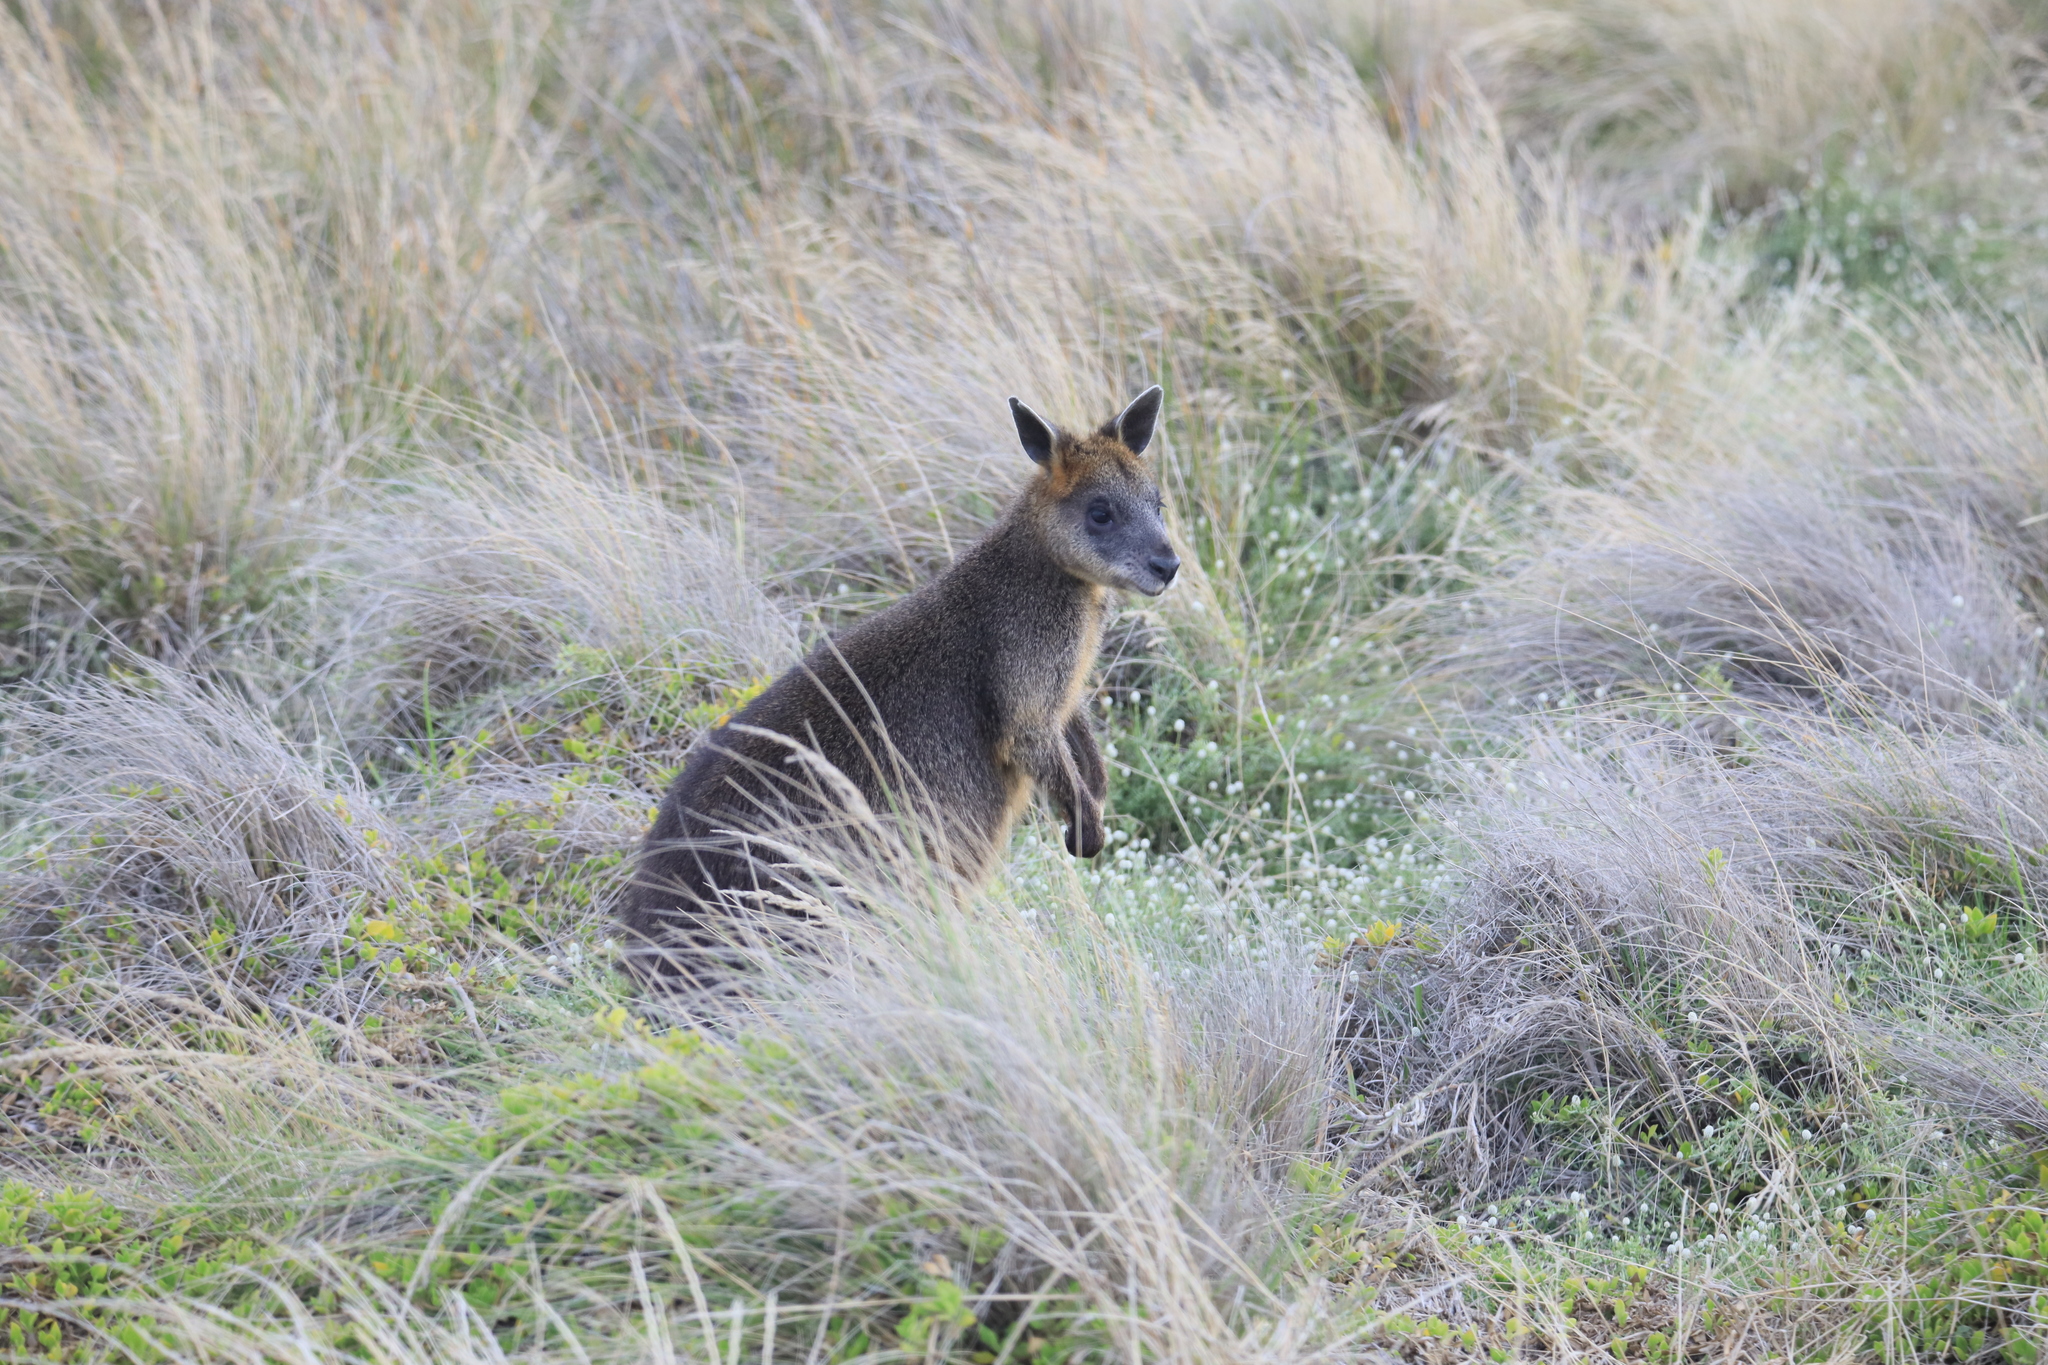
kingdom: Animalia
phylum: Chordata
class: Mammalia
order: Diprotodontia
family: Macropodidae
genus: Wallabia
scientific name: Wallabia bicolor
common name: Swamp wallaby
